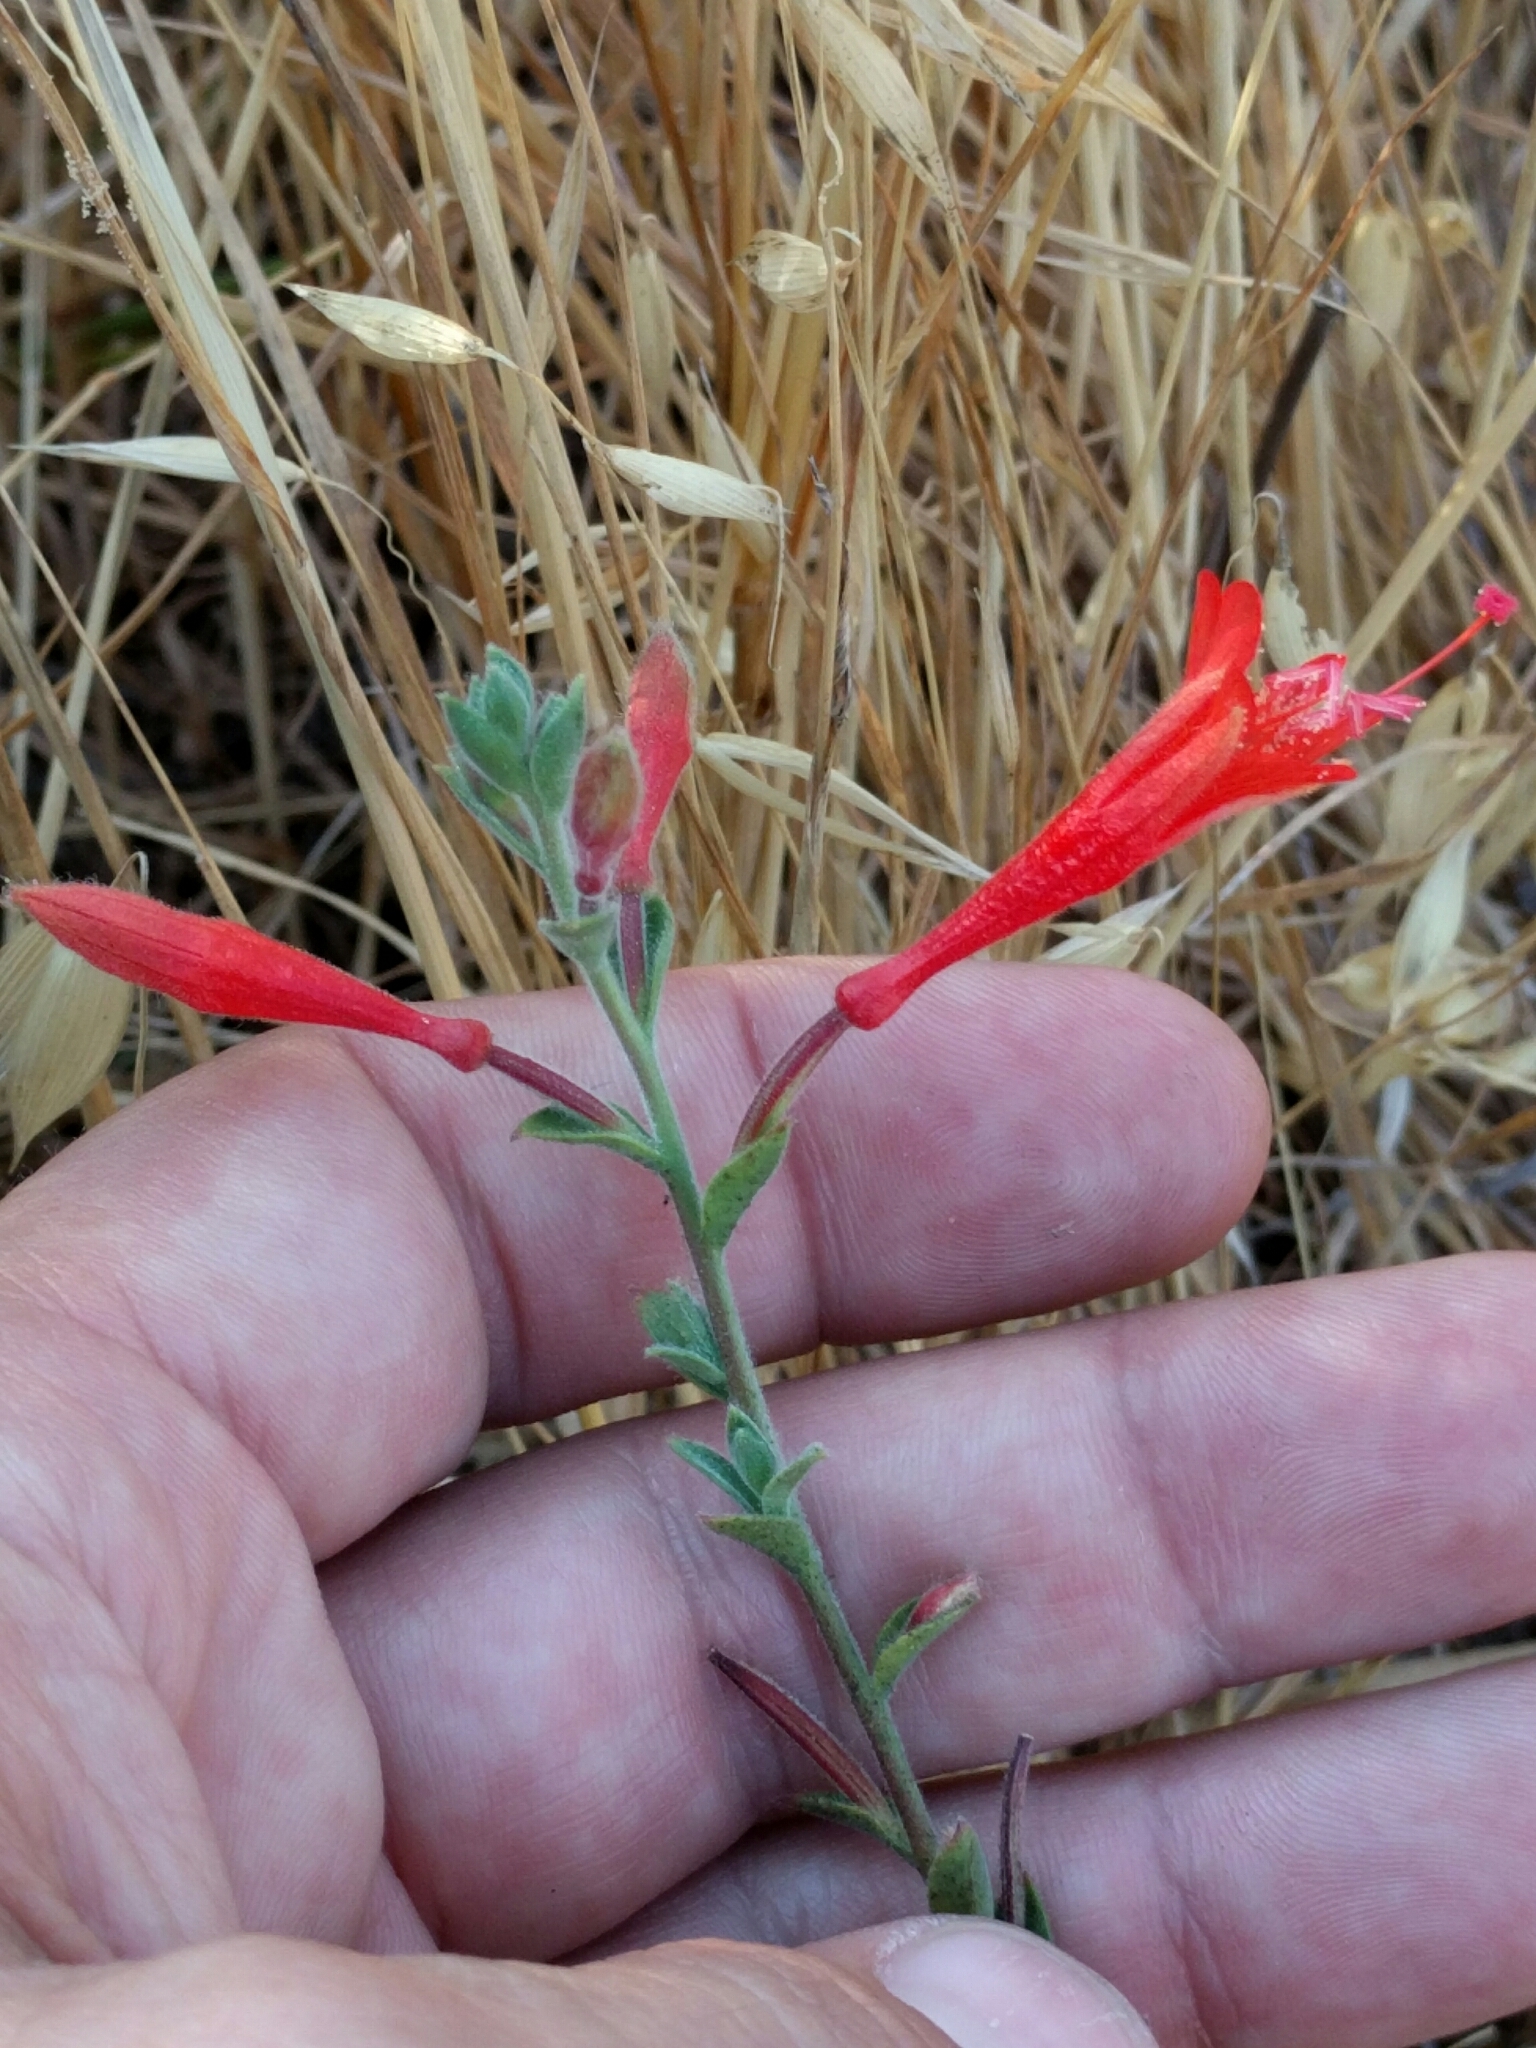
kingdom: Plantae
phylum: Tracheophyta
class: Magnoliopsida
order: Myrtales
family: Onagraceae
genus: Epilobium
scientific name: Epilobium canum
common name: California-fuchsia
